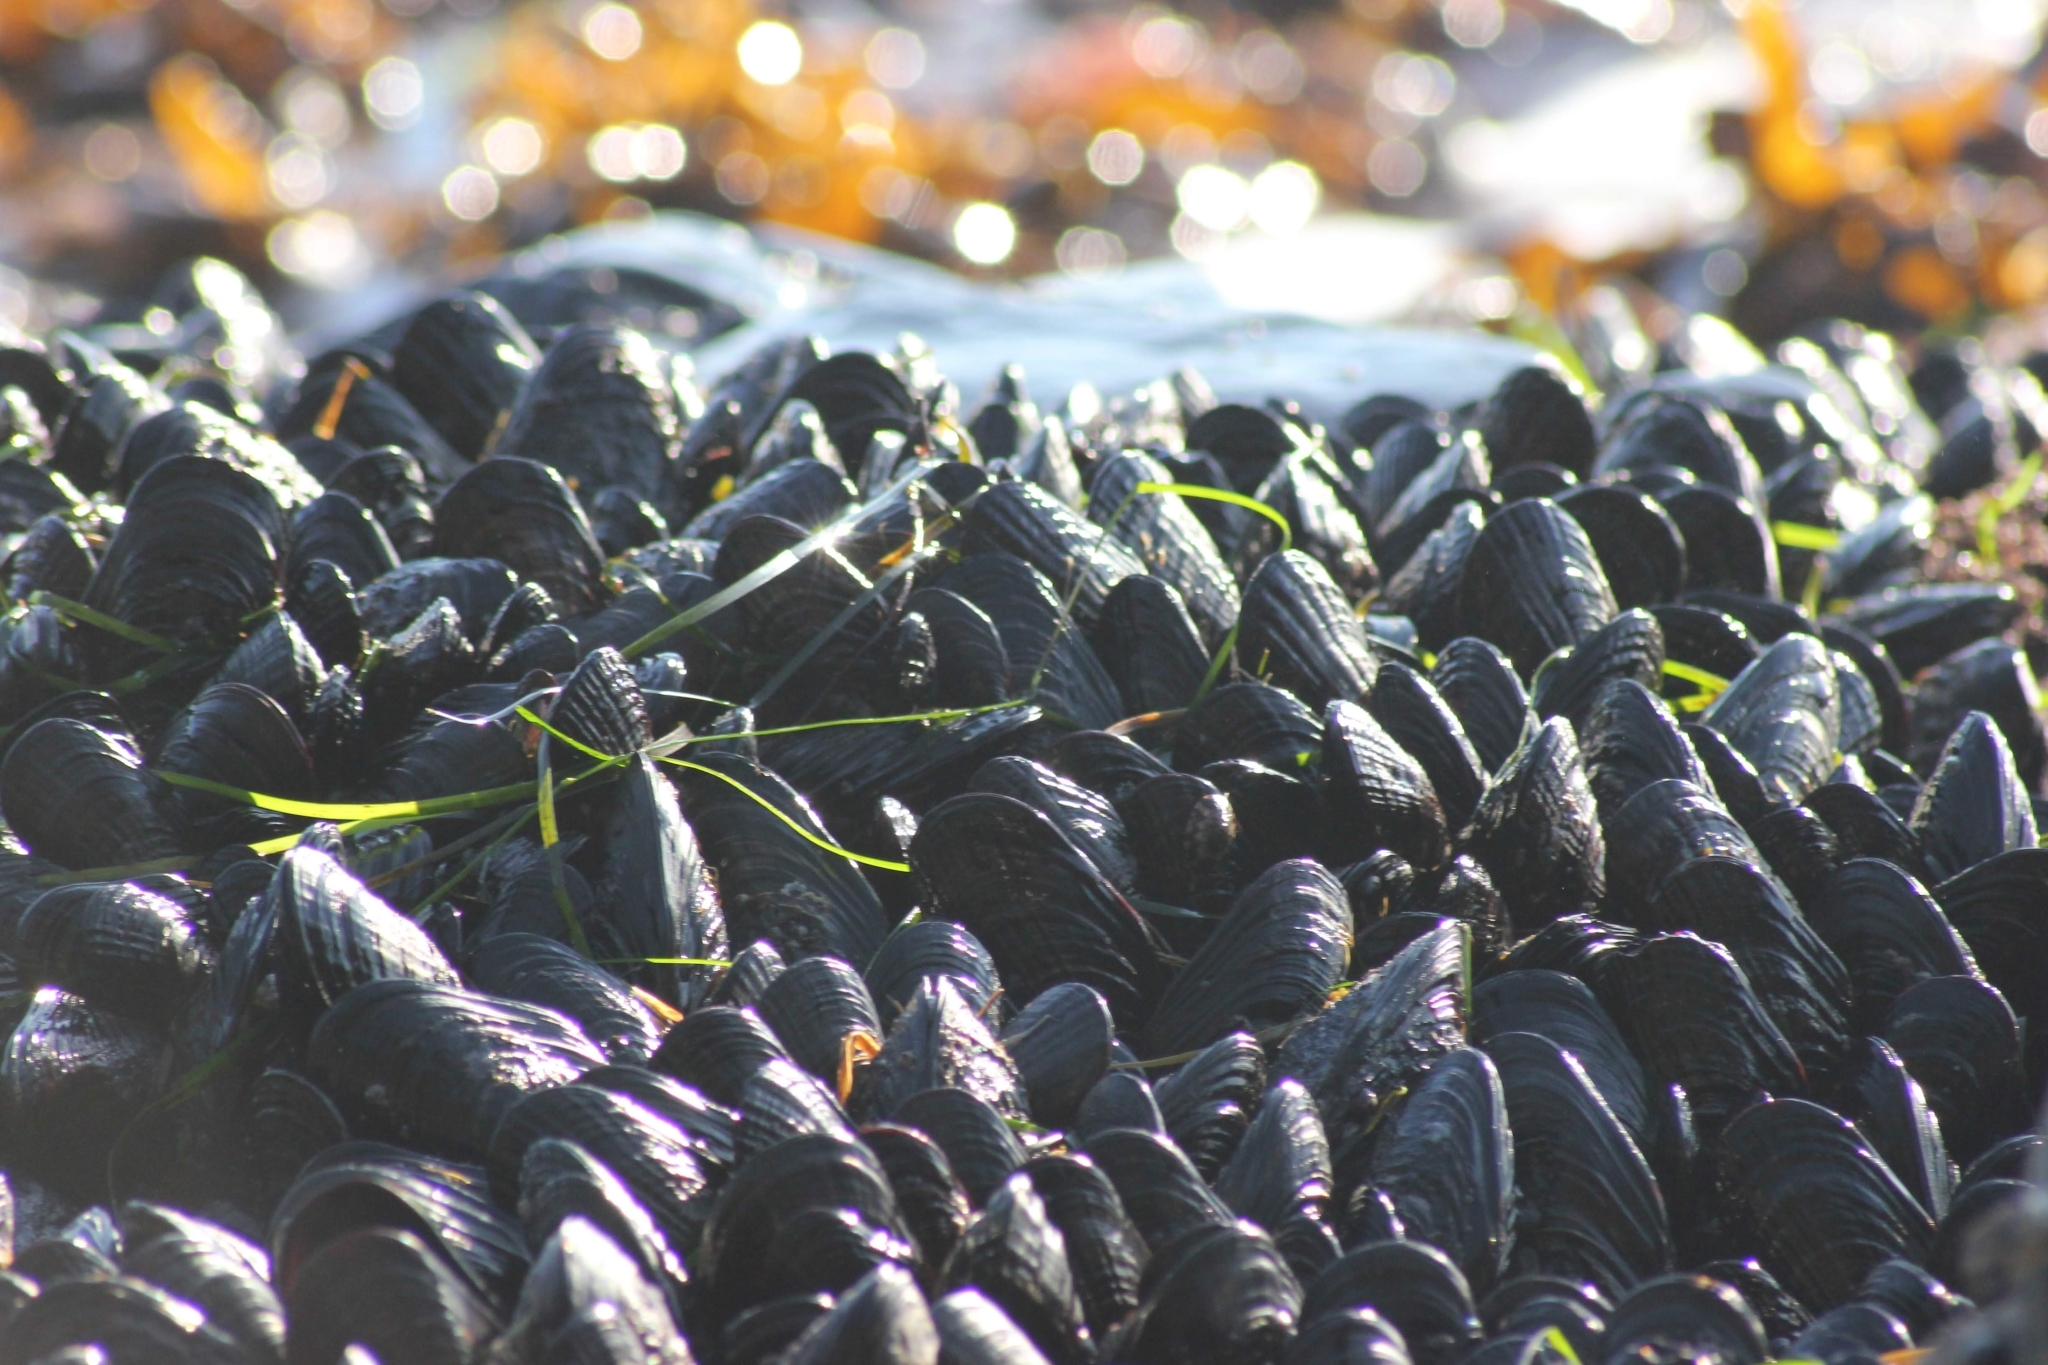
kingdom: Animalia
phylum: Mollusca
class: Bivalvia
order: Mytilida
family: Mytilidae
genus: Mytilus
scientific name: Mytilus californianus
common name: California mussel
